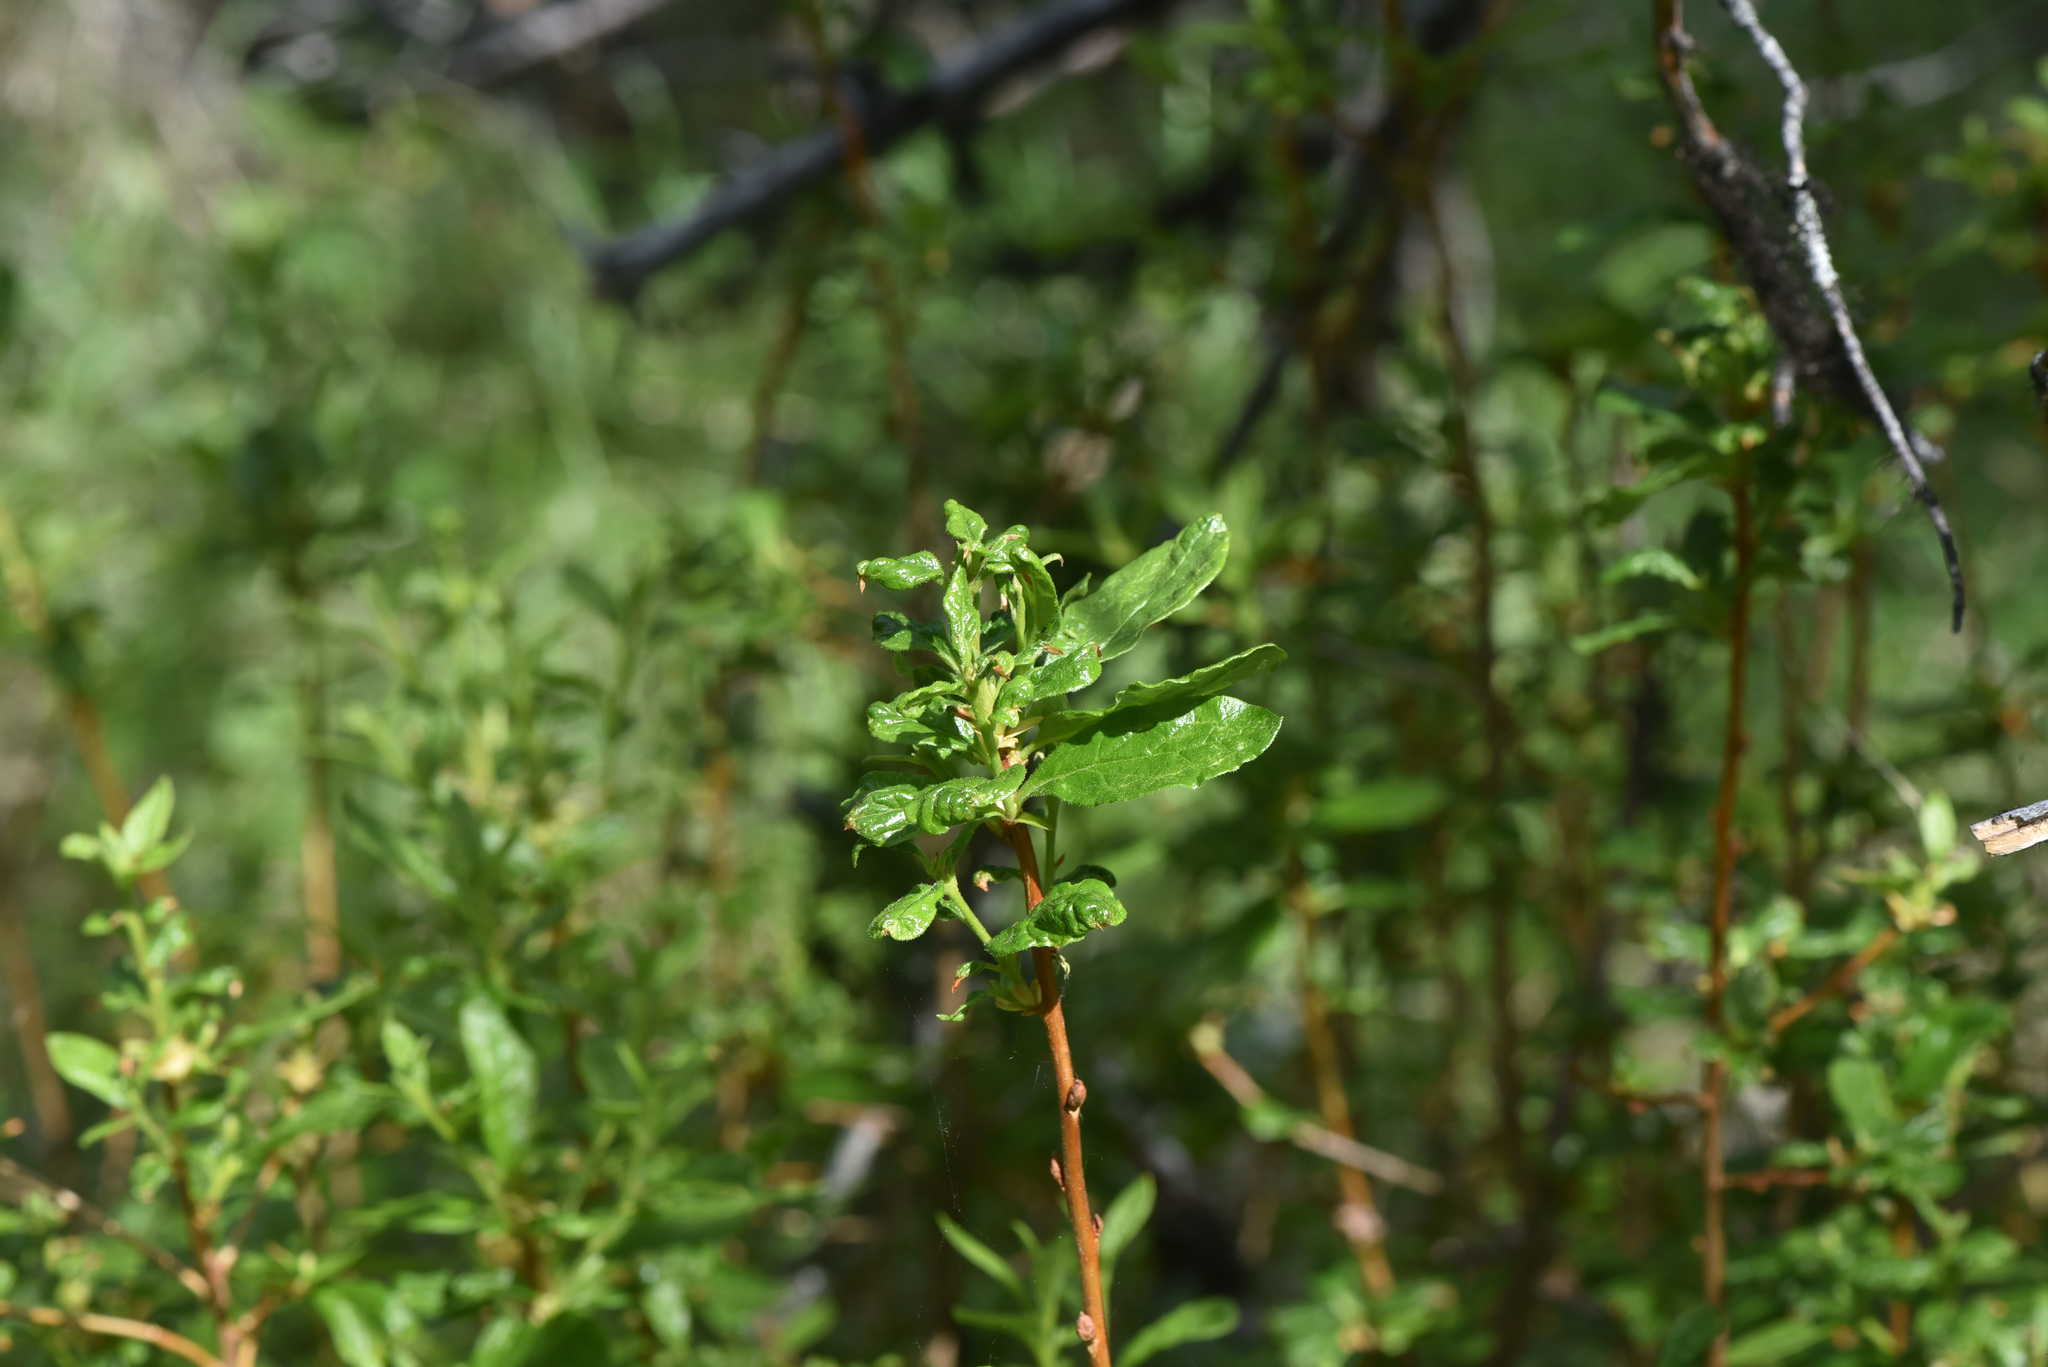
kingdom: Plantae
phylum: Tracheophyta
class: Magnoliopsida
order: Ericales
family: Ericaceae
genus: Rhododendron
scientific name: Rhododendron albiflorum
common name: White rhododendron
